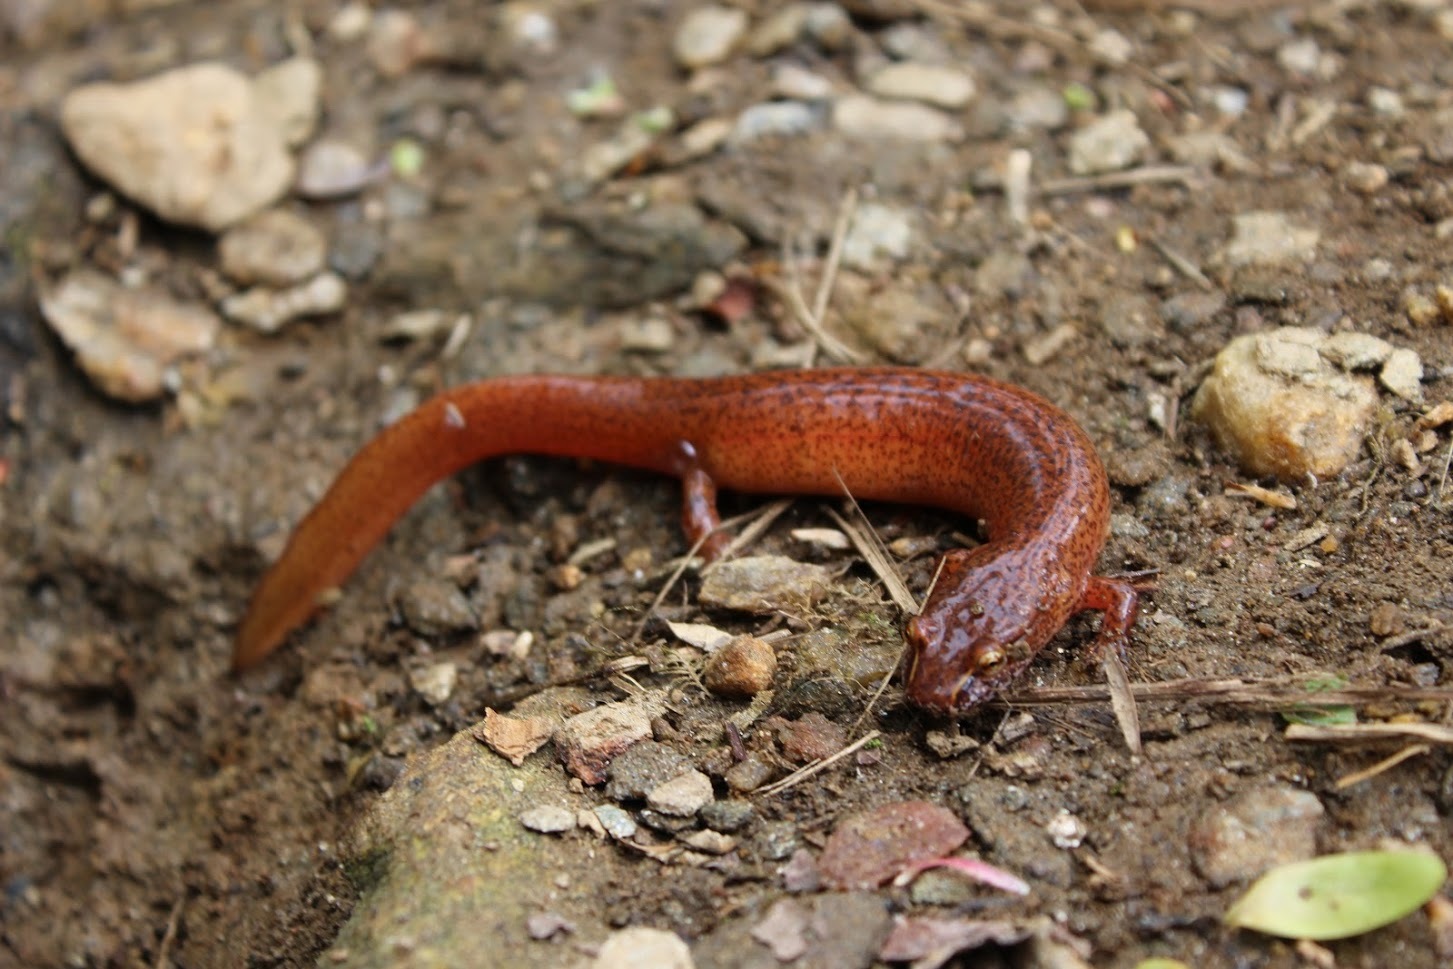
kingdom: Animalia
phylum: Chordata
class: Amphibia
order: Caudata
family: Plethodontidae
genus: Gyrinophilus
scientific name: Gyrinophilus porphyriticus
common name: Spring salamander
